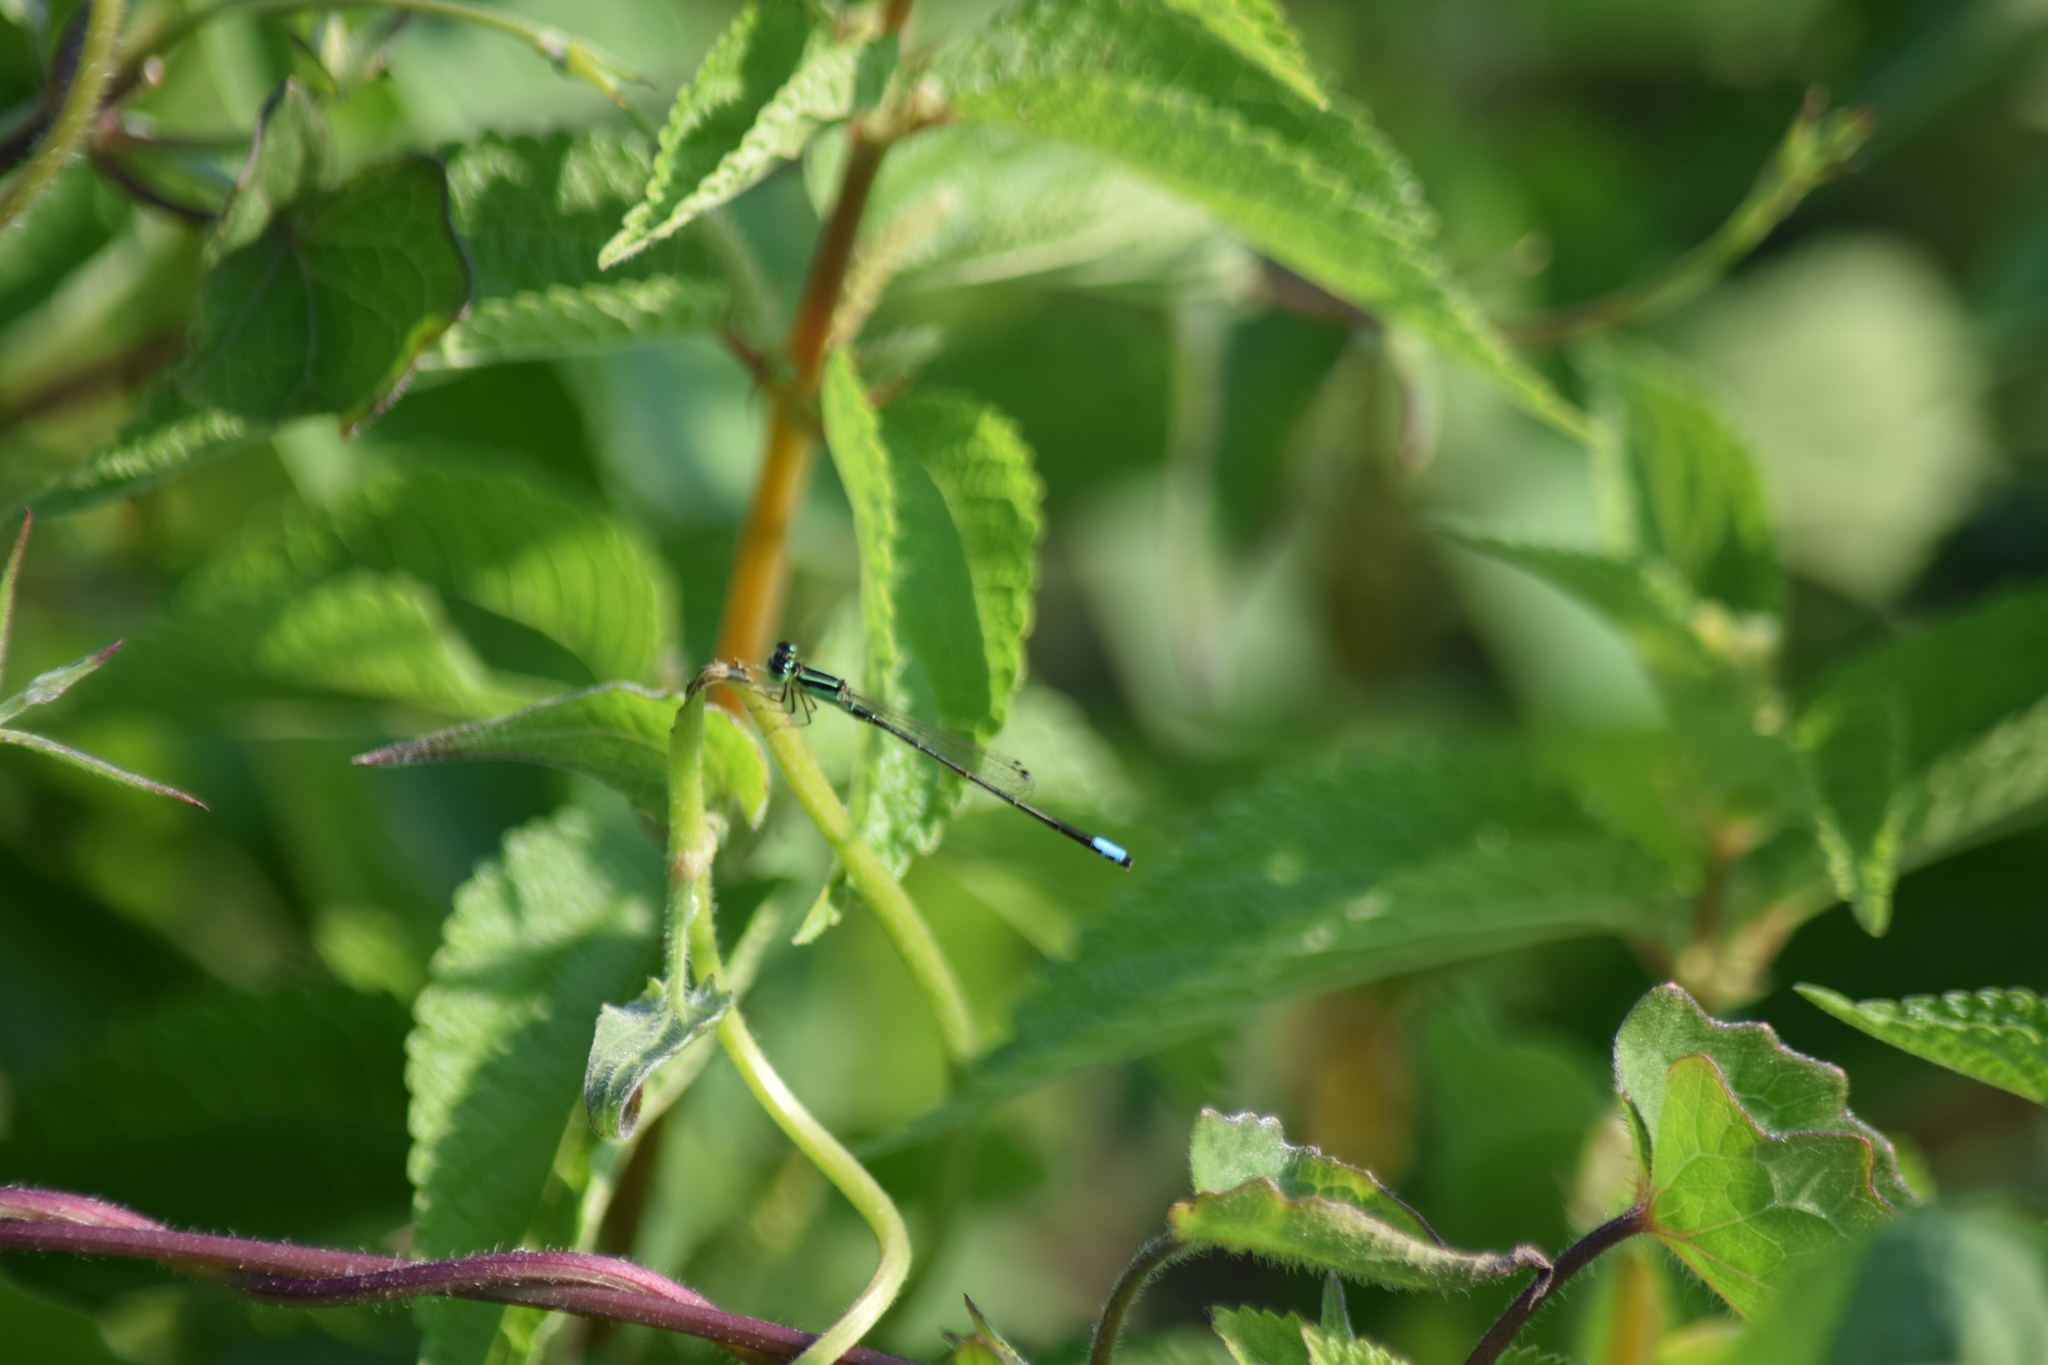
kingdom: Animalia
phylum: Arthropoda
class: Insecta
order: Odonata
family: Coenagrionidae
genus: Ischnura
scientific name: Ischnura verticalis
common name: Eastern forktail
